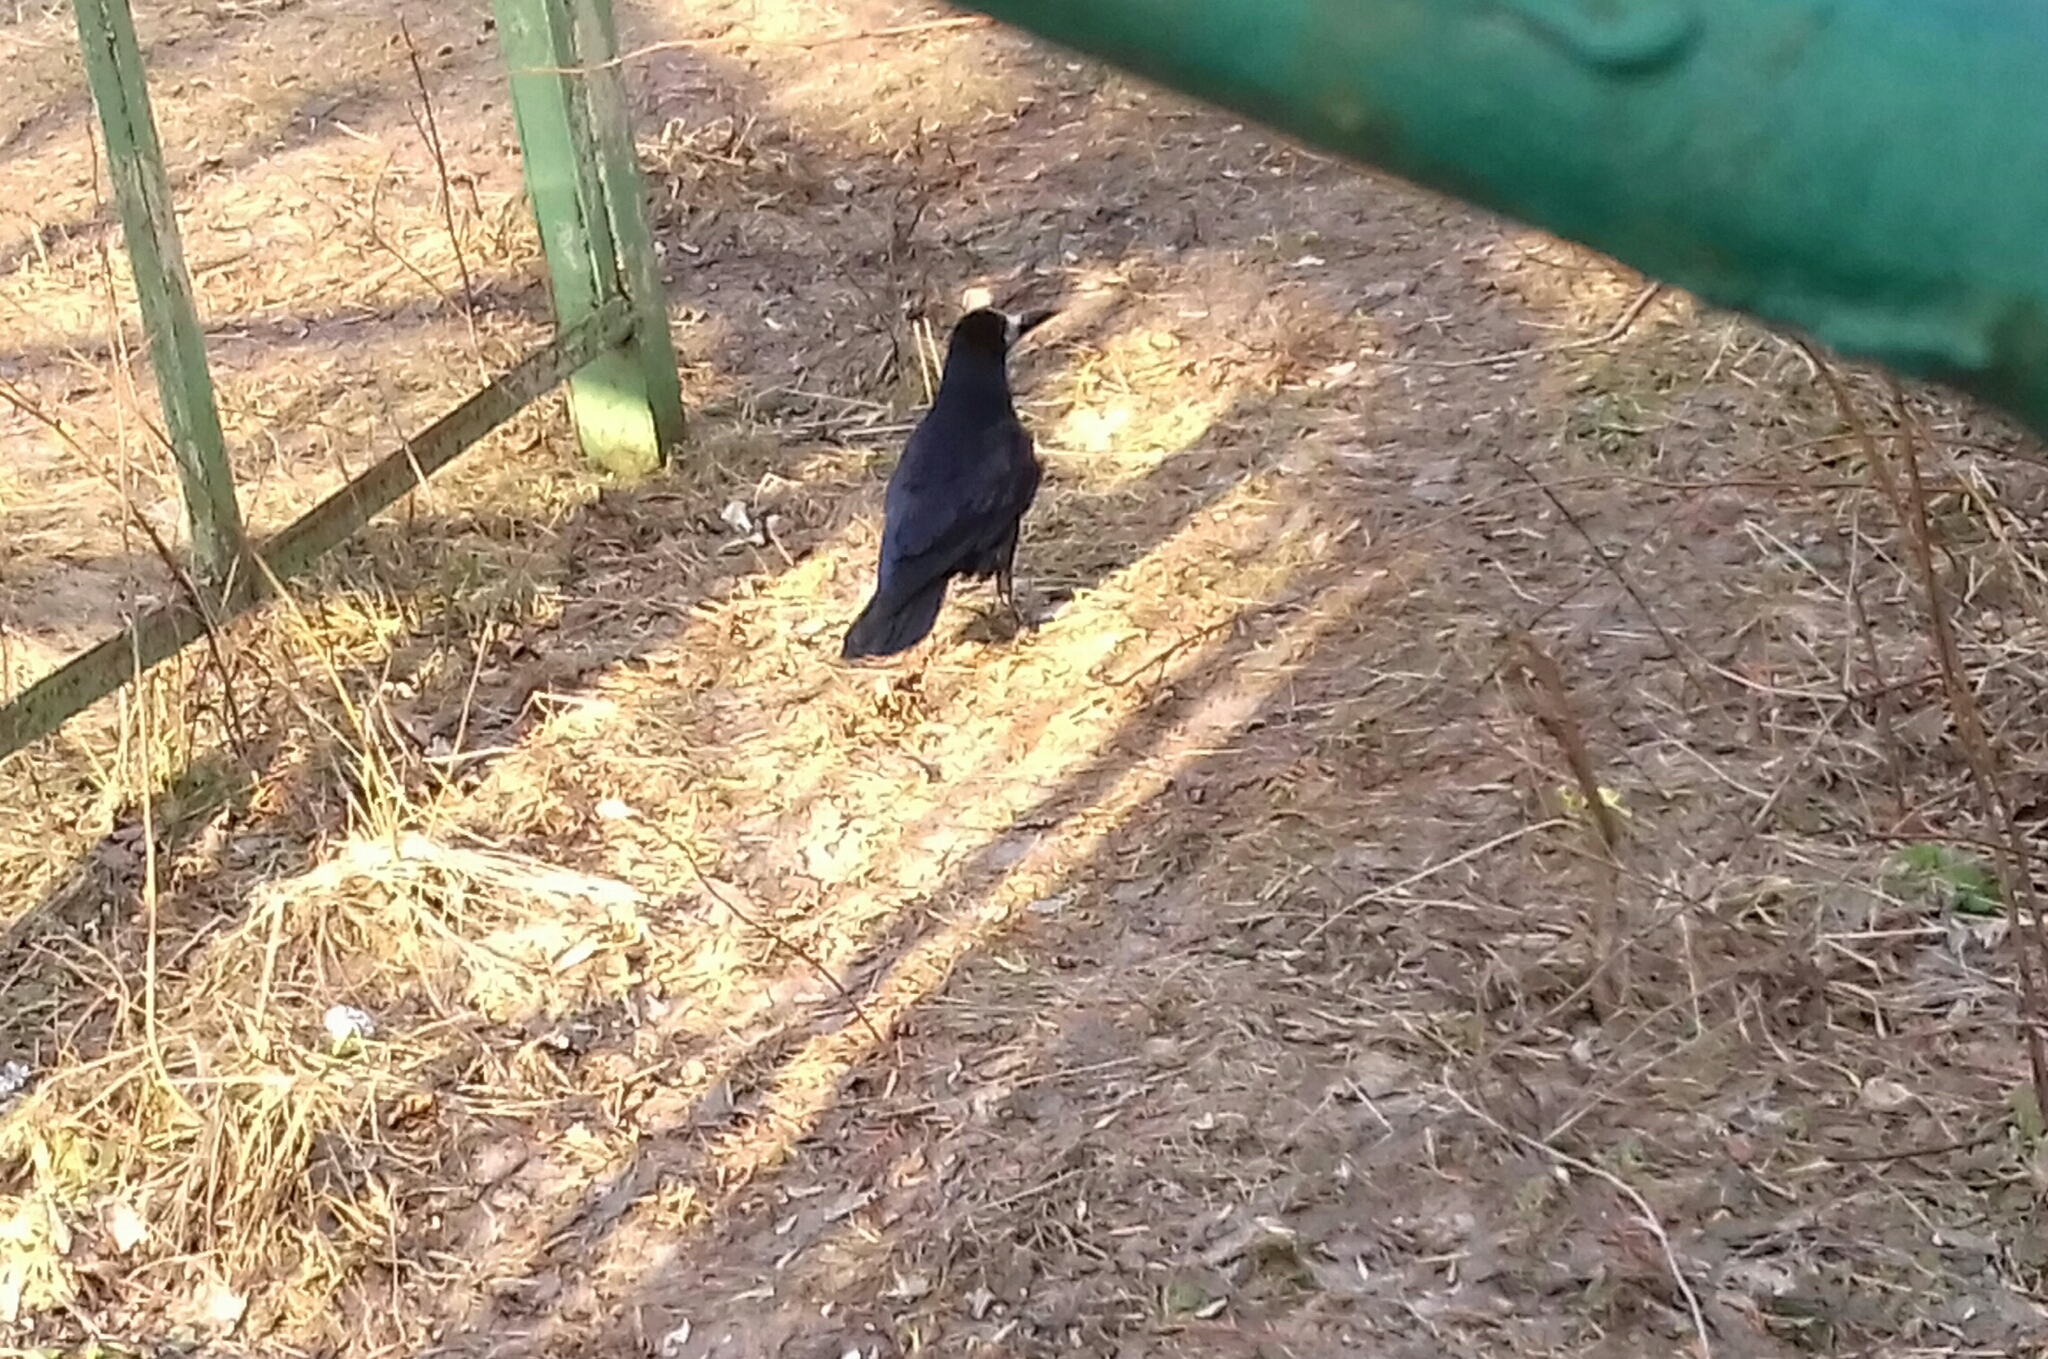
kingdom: Animalia
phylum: Chordata
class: Aves
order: Passeriformes
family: Corvidae
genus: Corvus
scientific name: Corvus frugilegus
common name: Rook
